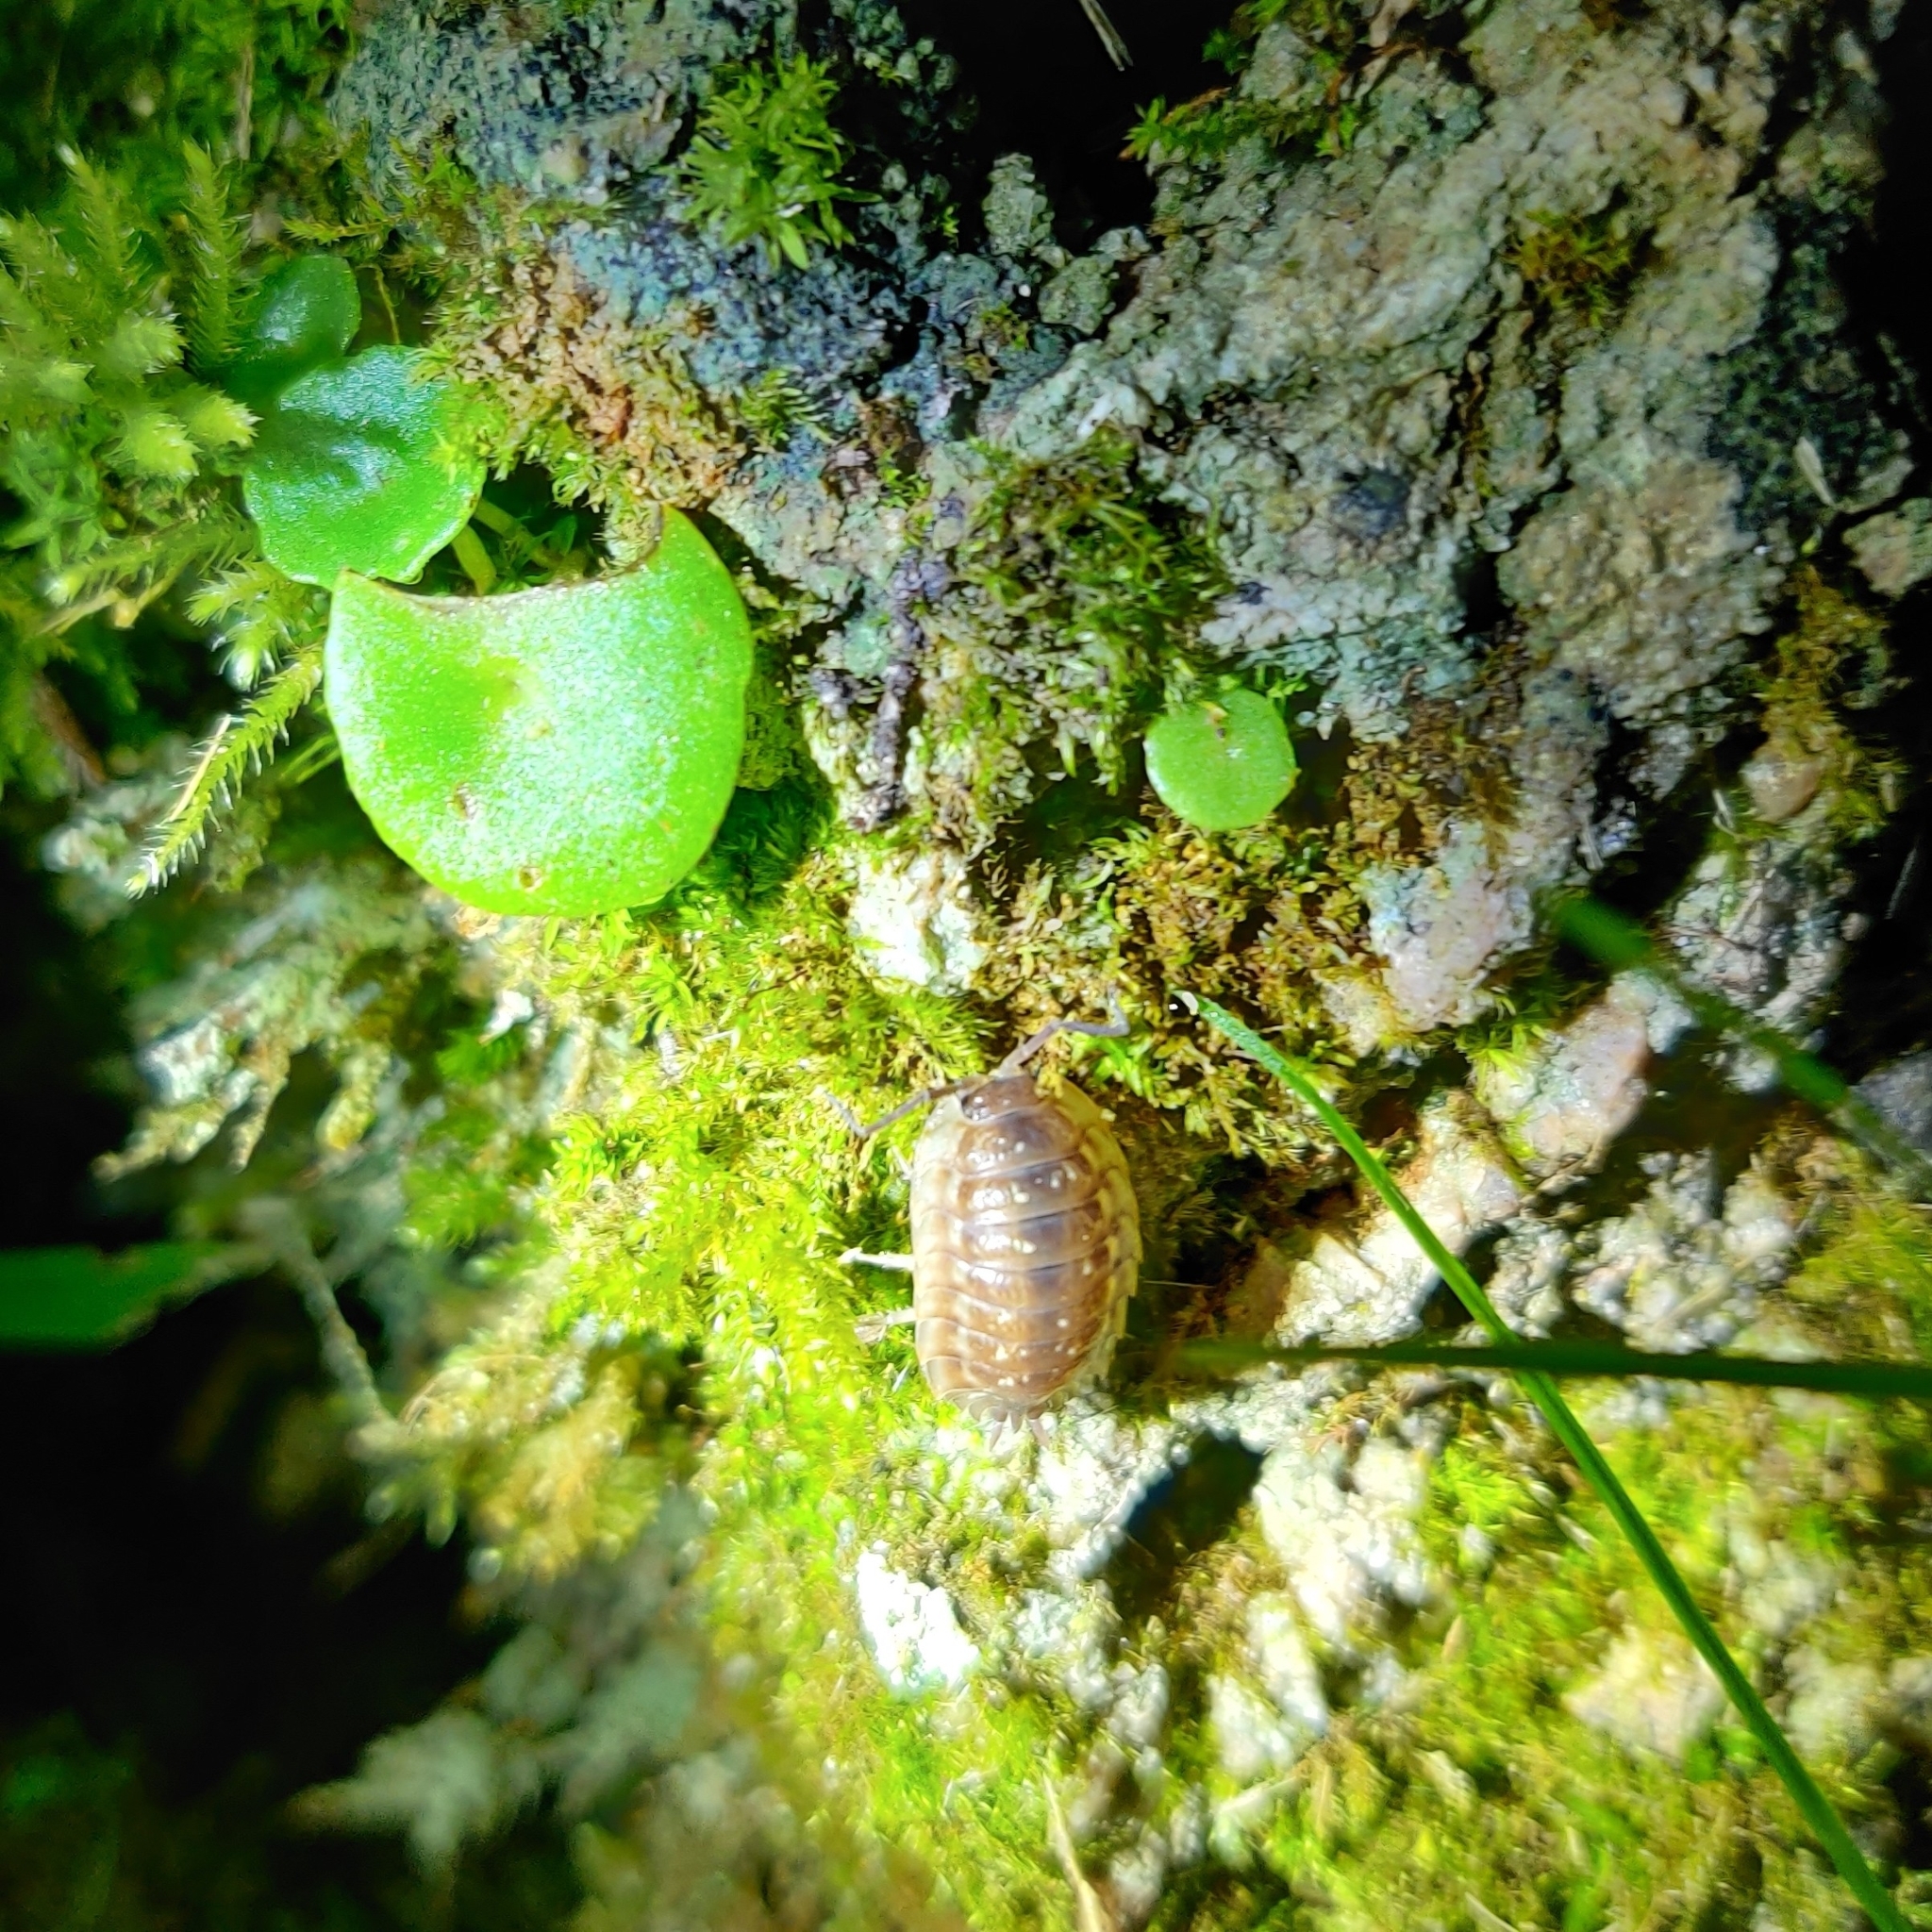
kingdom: Animalia
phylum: Arthropoda
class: Malacostraca
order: Isopoda
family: Oniscidae
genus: Oniscus
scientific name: Oniscus asellus
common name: Common shiny woodlouse
